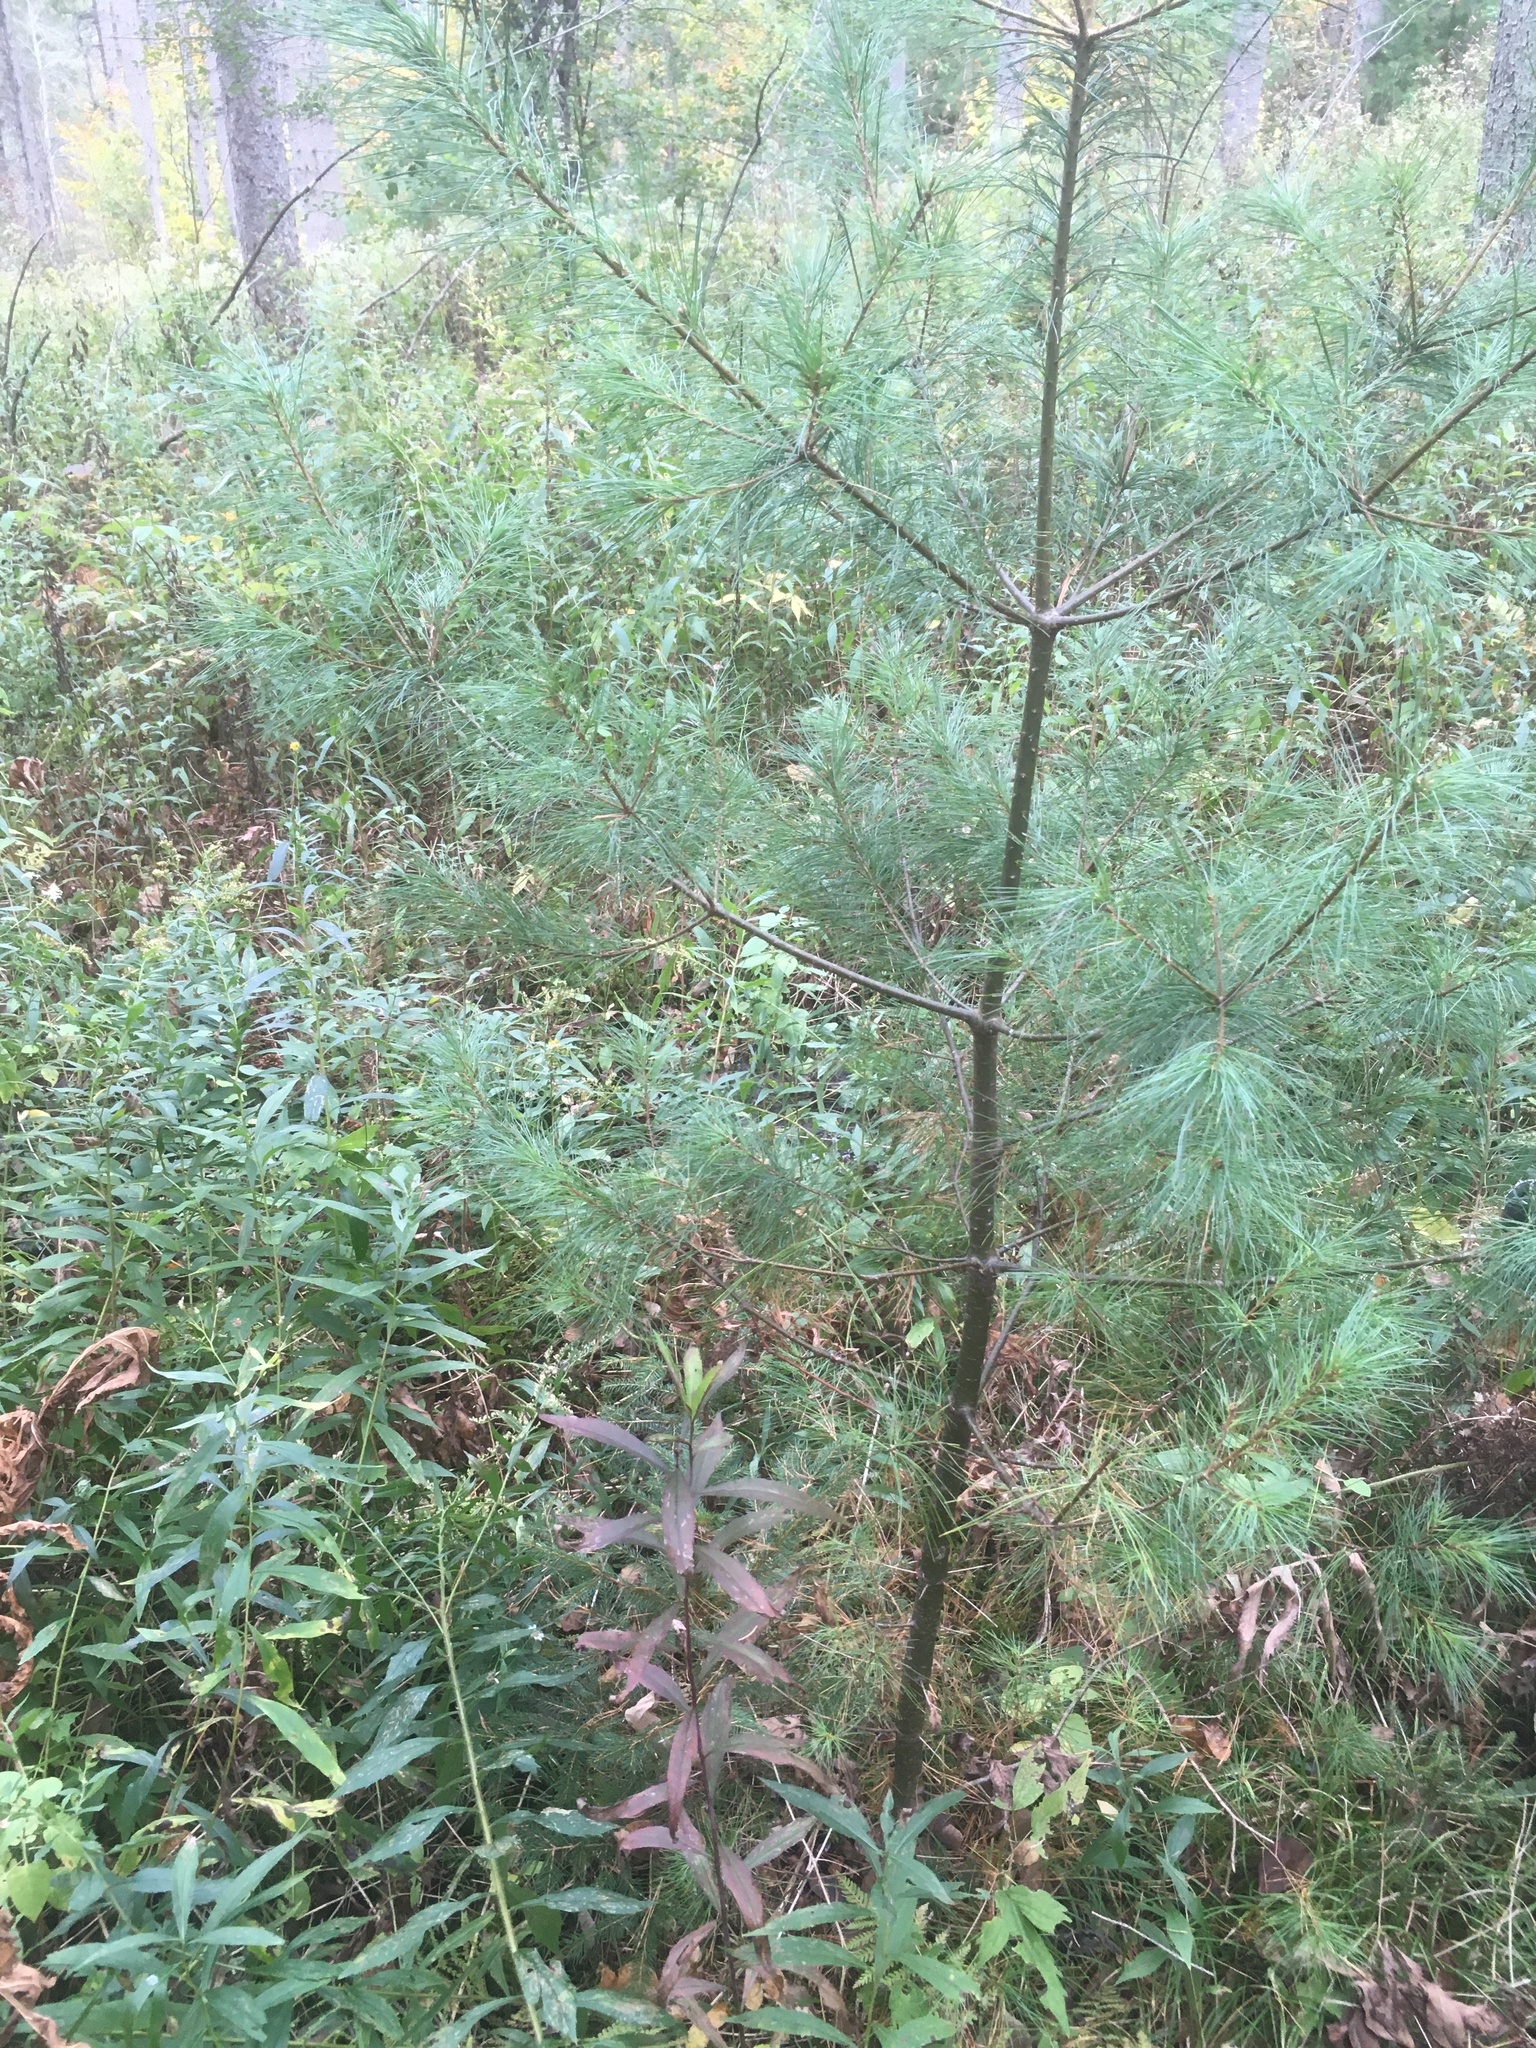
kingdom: Plantae
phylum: Tracheophyta
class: Pinopsida
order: Pinales
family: Pinaceae
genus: Pinus
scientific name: Pinus strobus
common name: Weymouth pine
